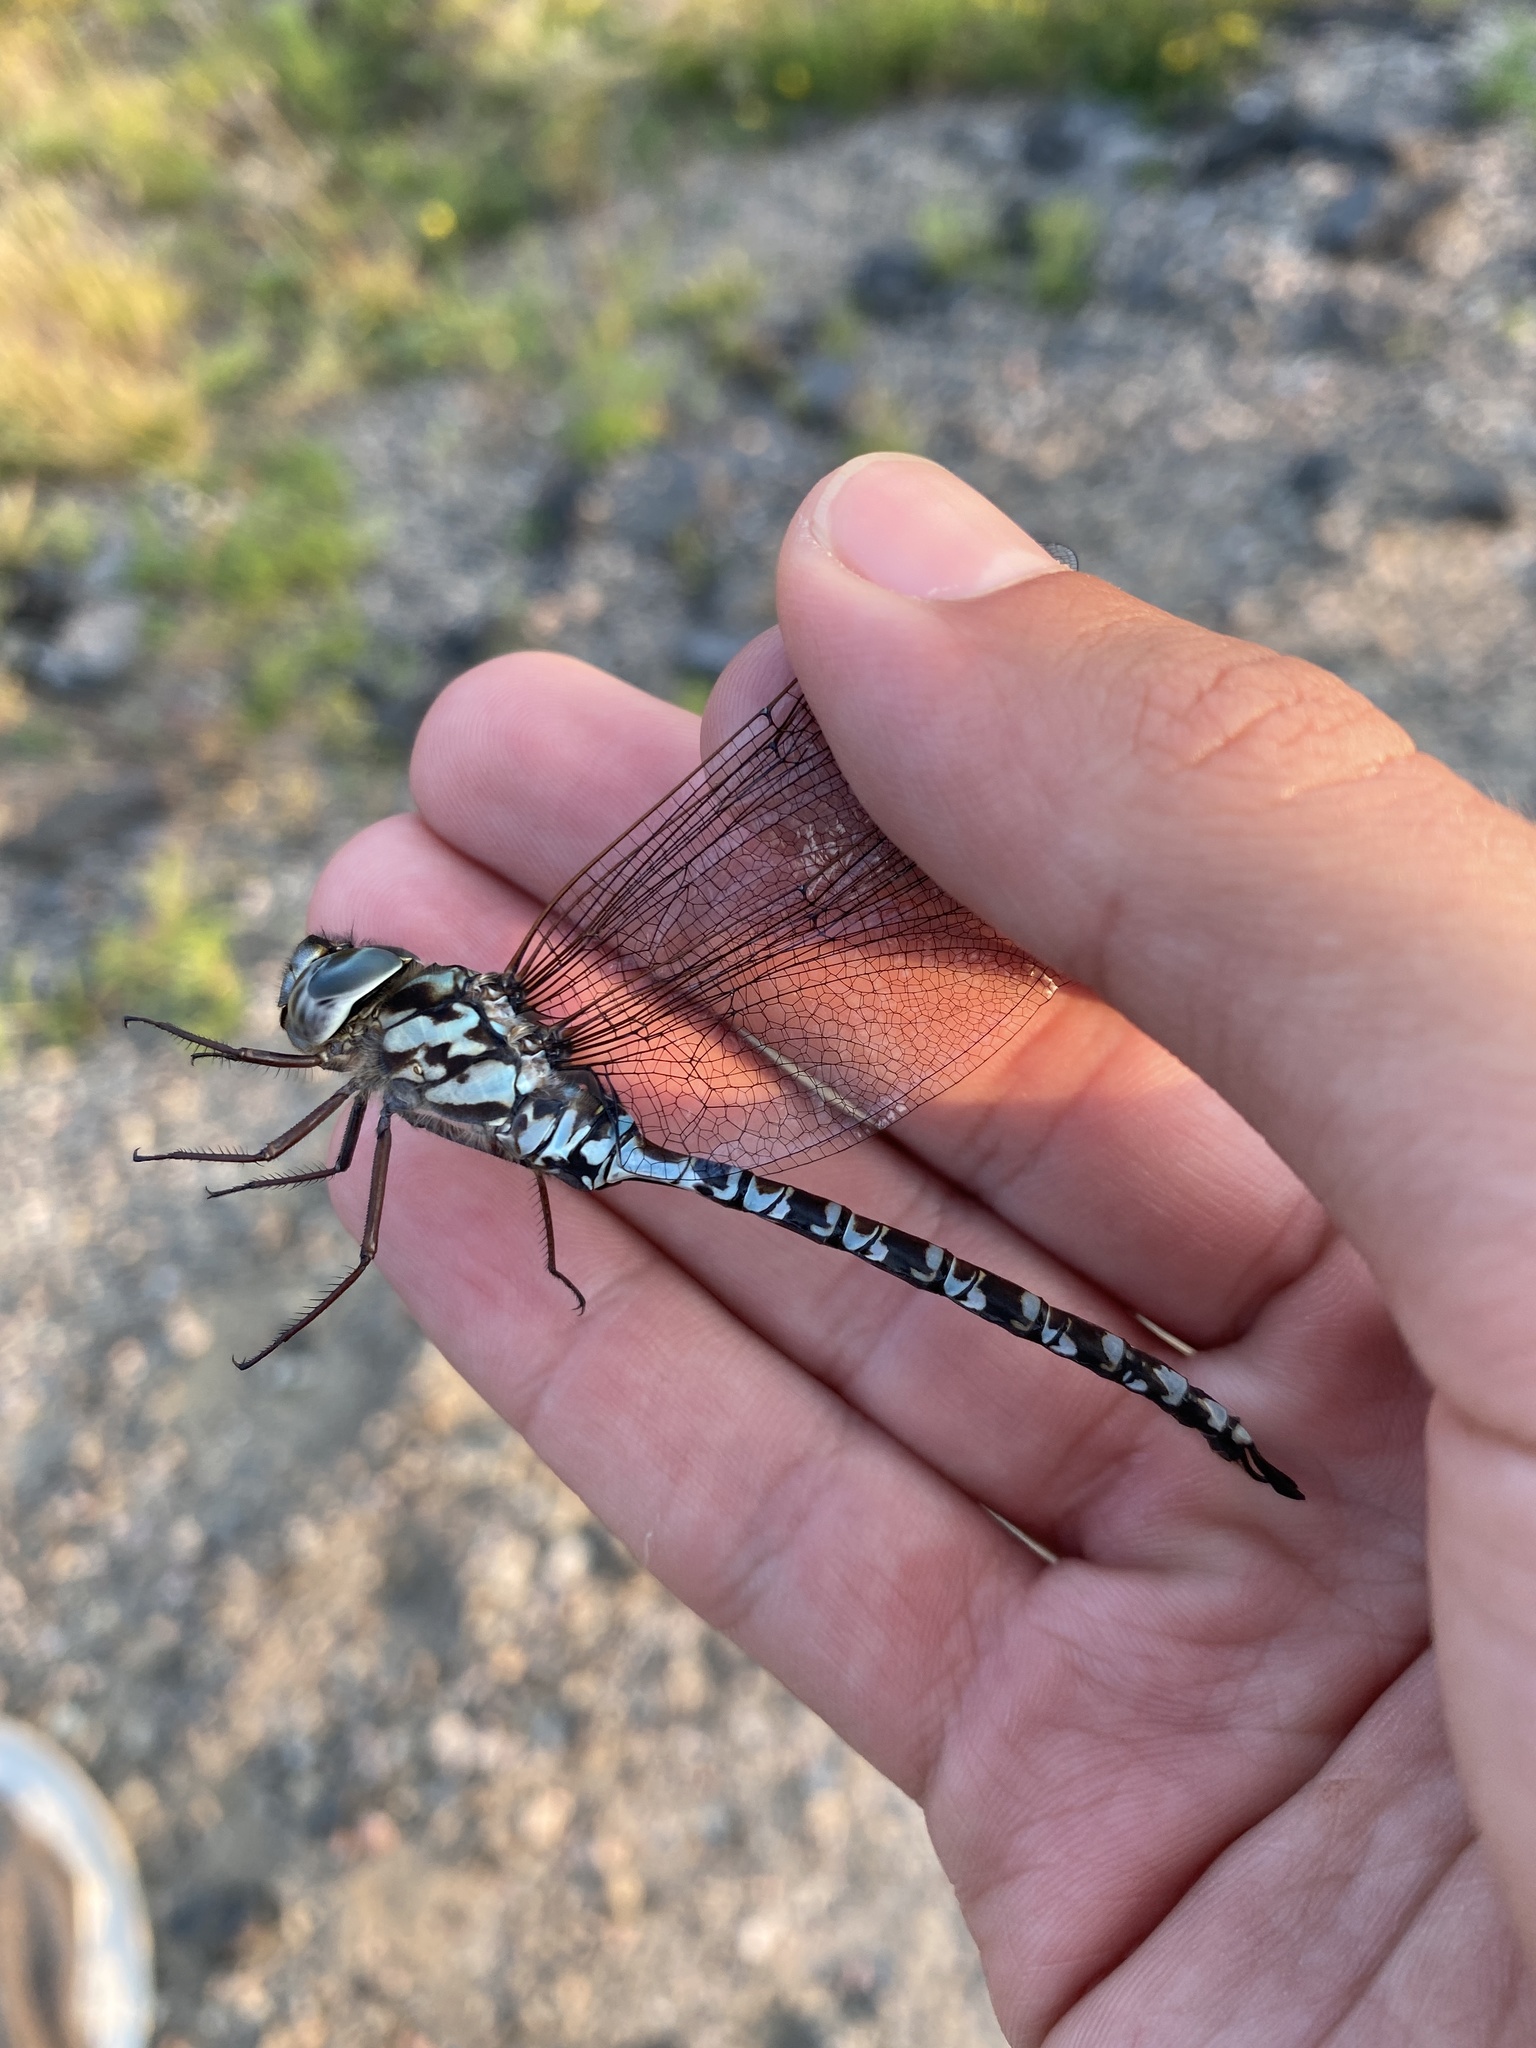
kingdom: Animalia
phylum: Arthropoda
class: Insecta
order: Odonata
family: Aeshnidae
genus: Aeshna
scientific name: Aeshna clepsydra
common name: Mottled darner
